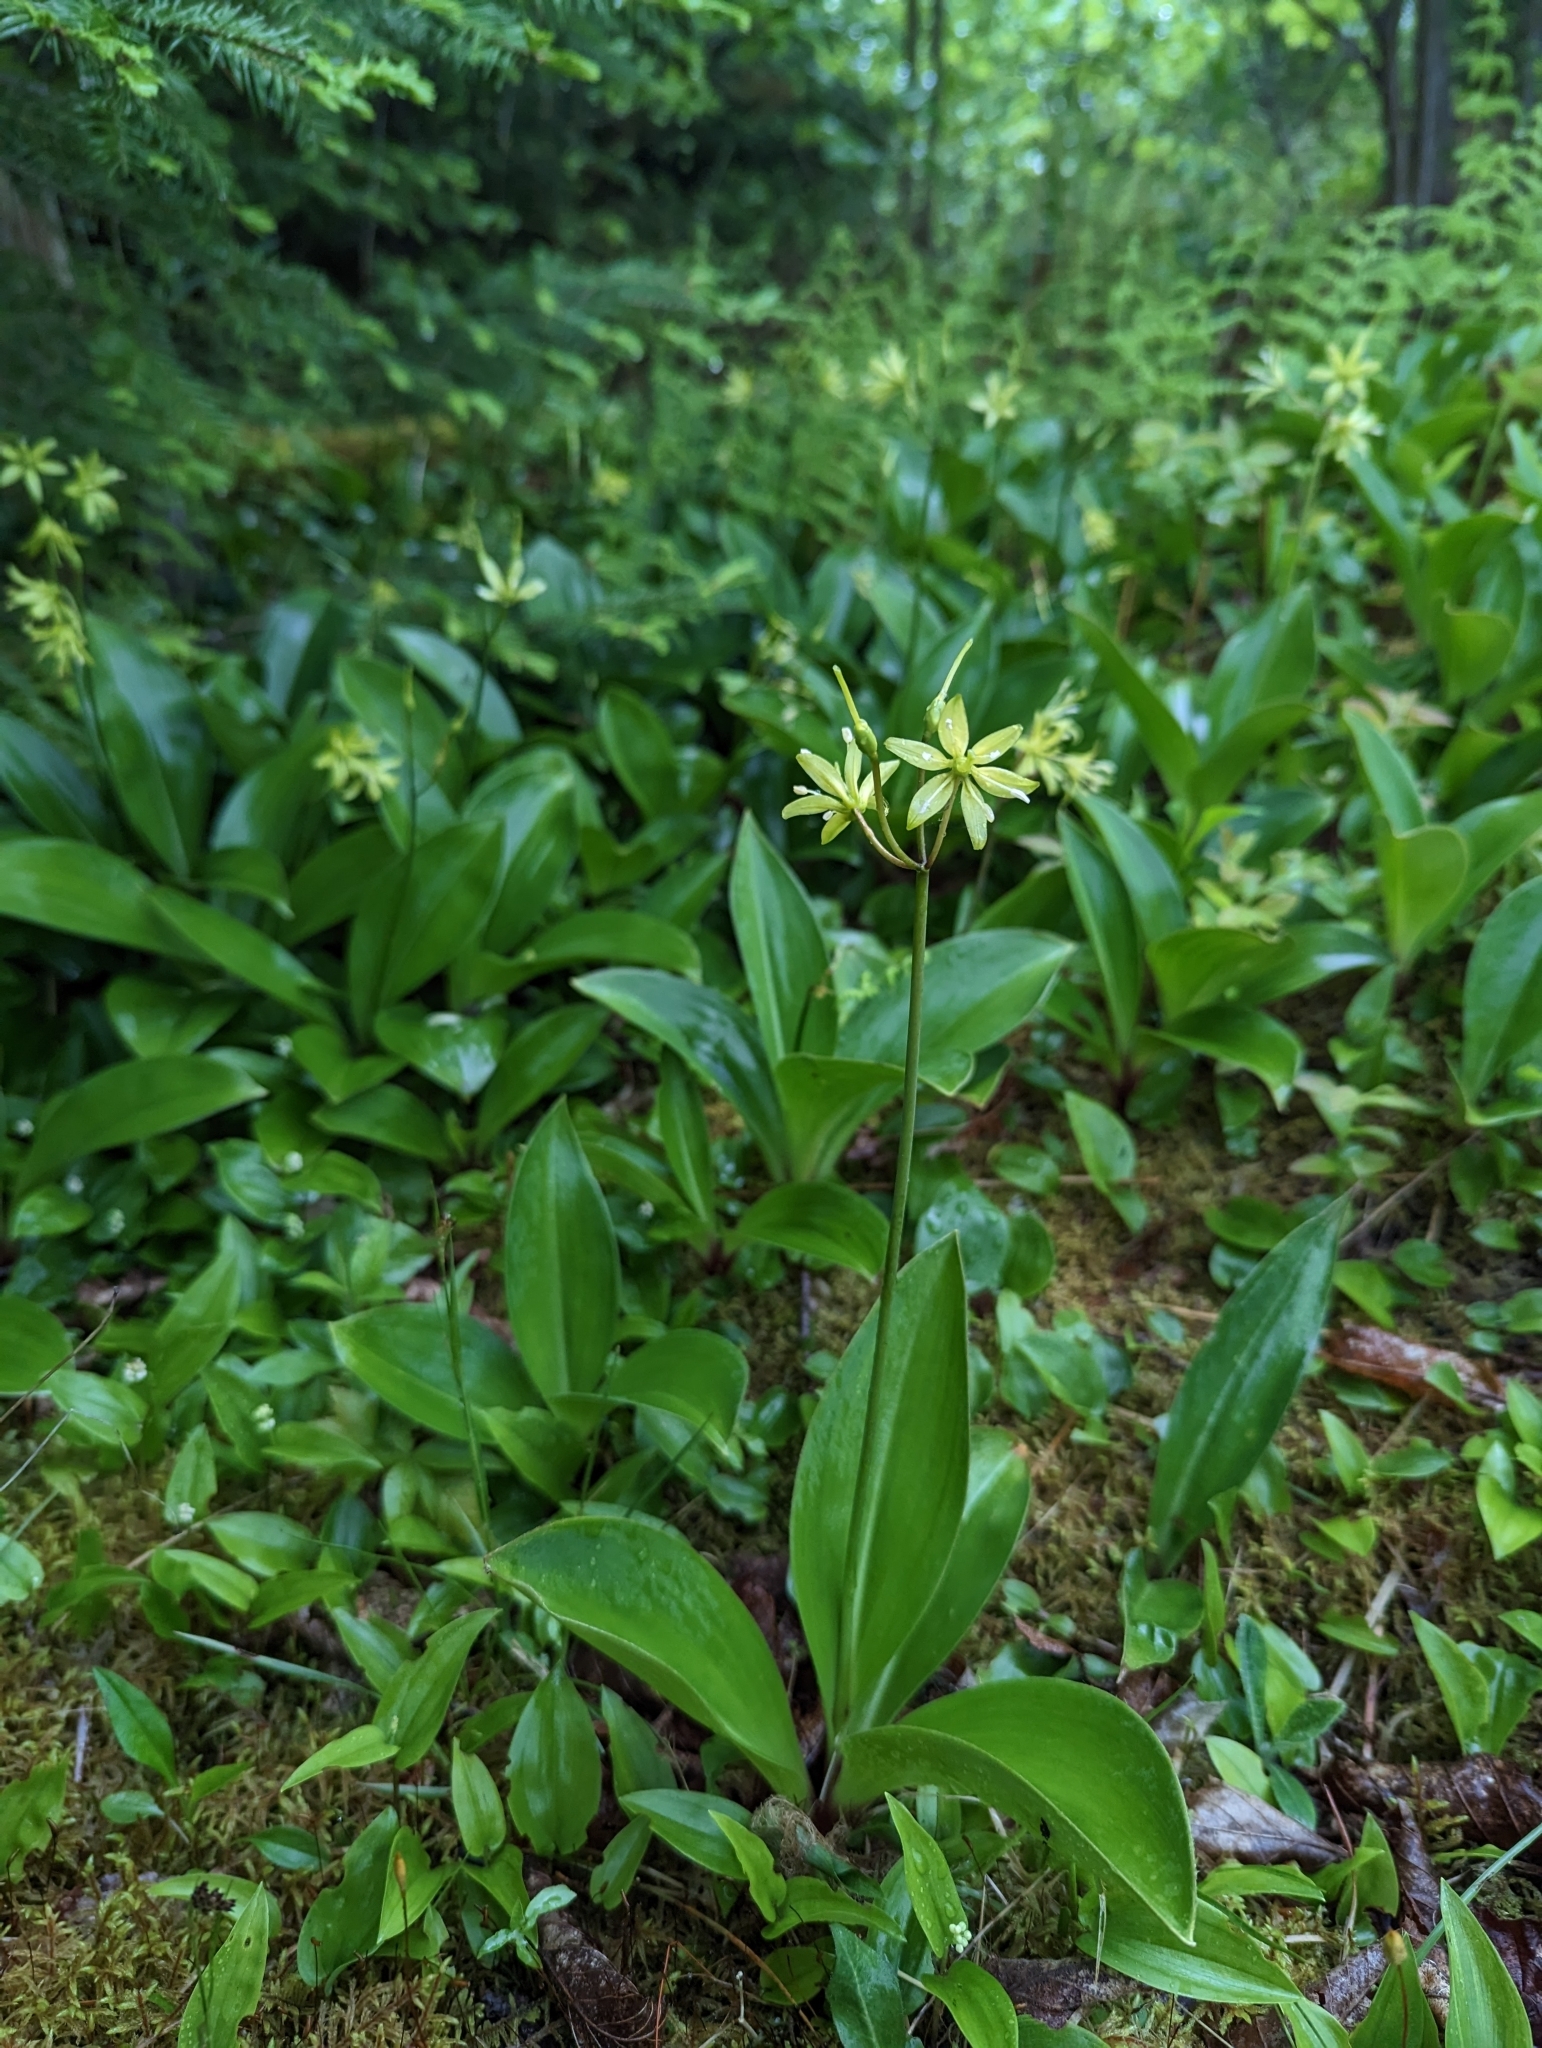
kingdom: Plantae
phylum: Tracheophyta
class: Liliopsida
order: Liliales
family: Liliaceae
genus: Clintonia
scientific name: Clintonia borealis
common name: Yellow clintonia
